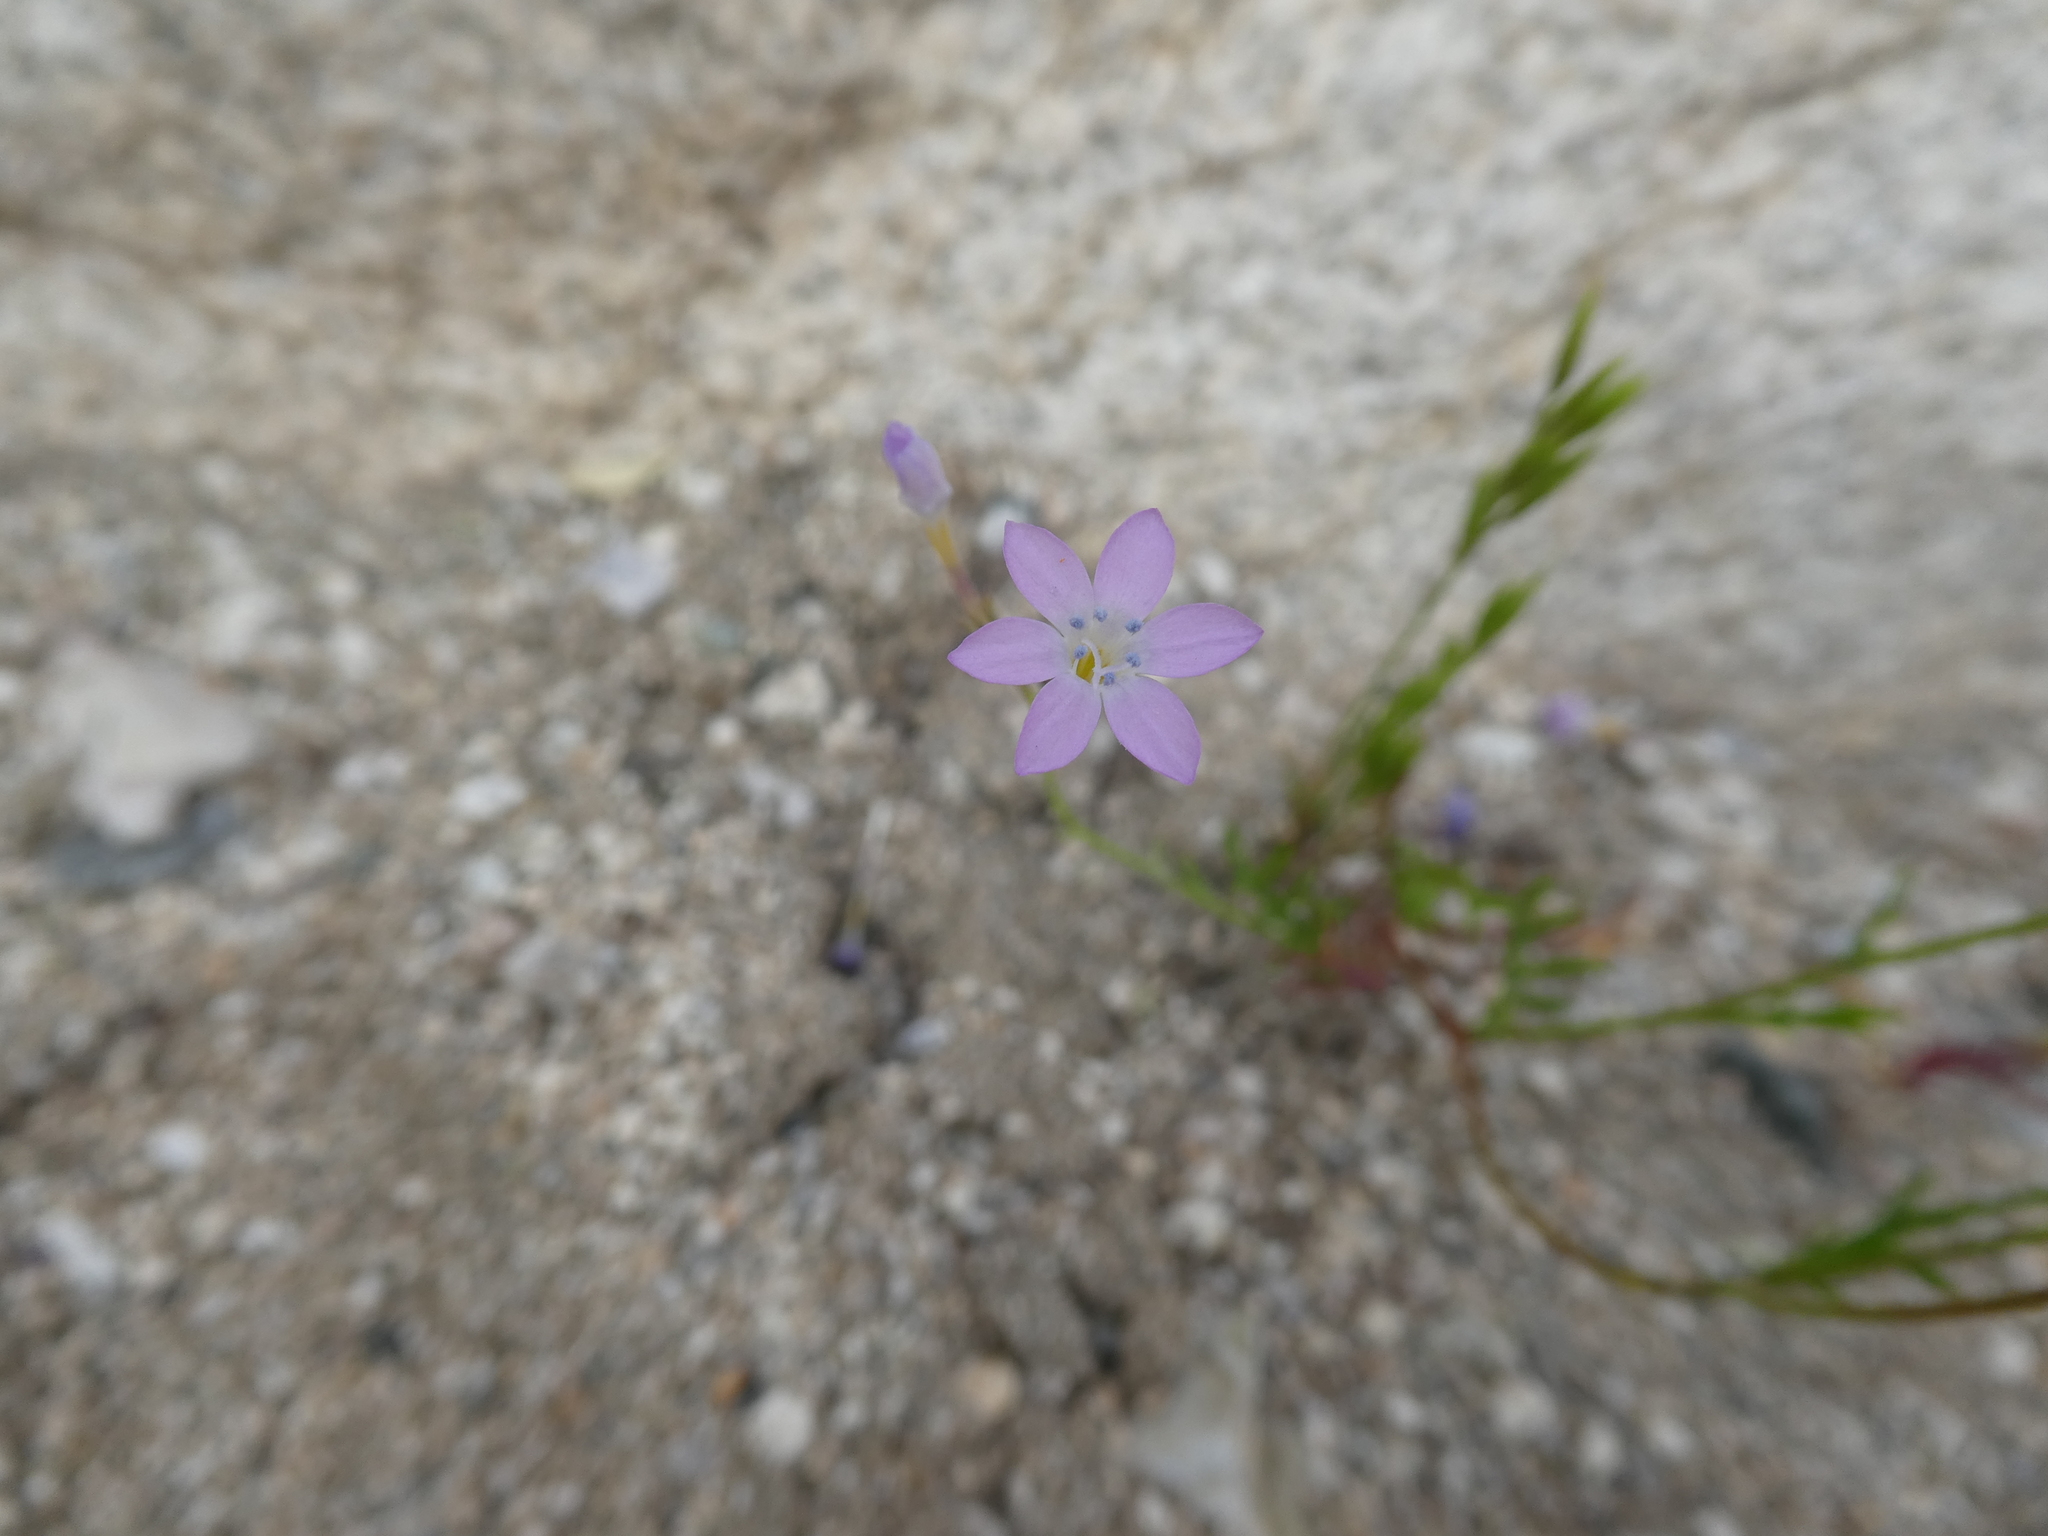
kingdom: Plantae
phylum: Tracheophyta
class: Magnoliopsida
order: Ericales
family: Polemoniaceae
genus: Gilia
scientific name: Gilia flavocincta
